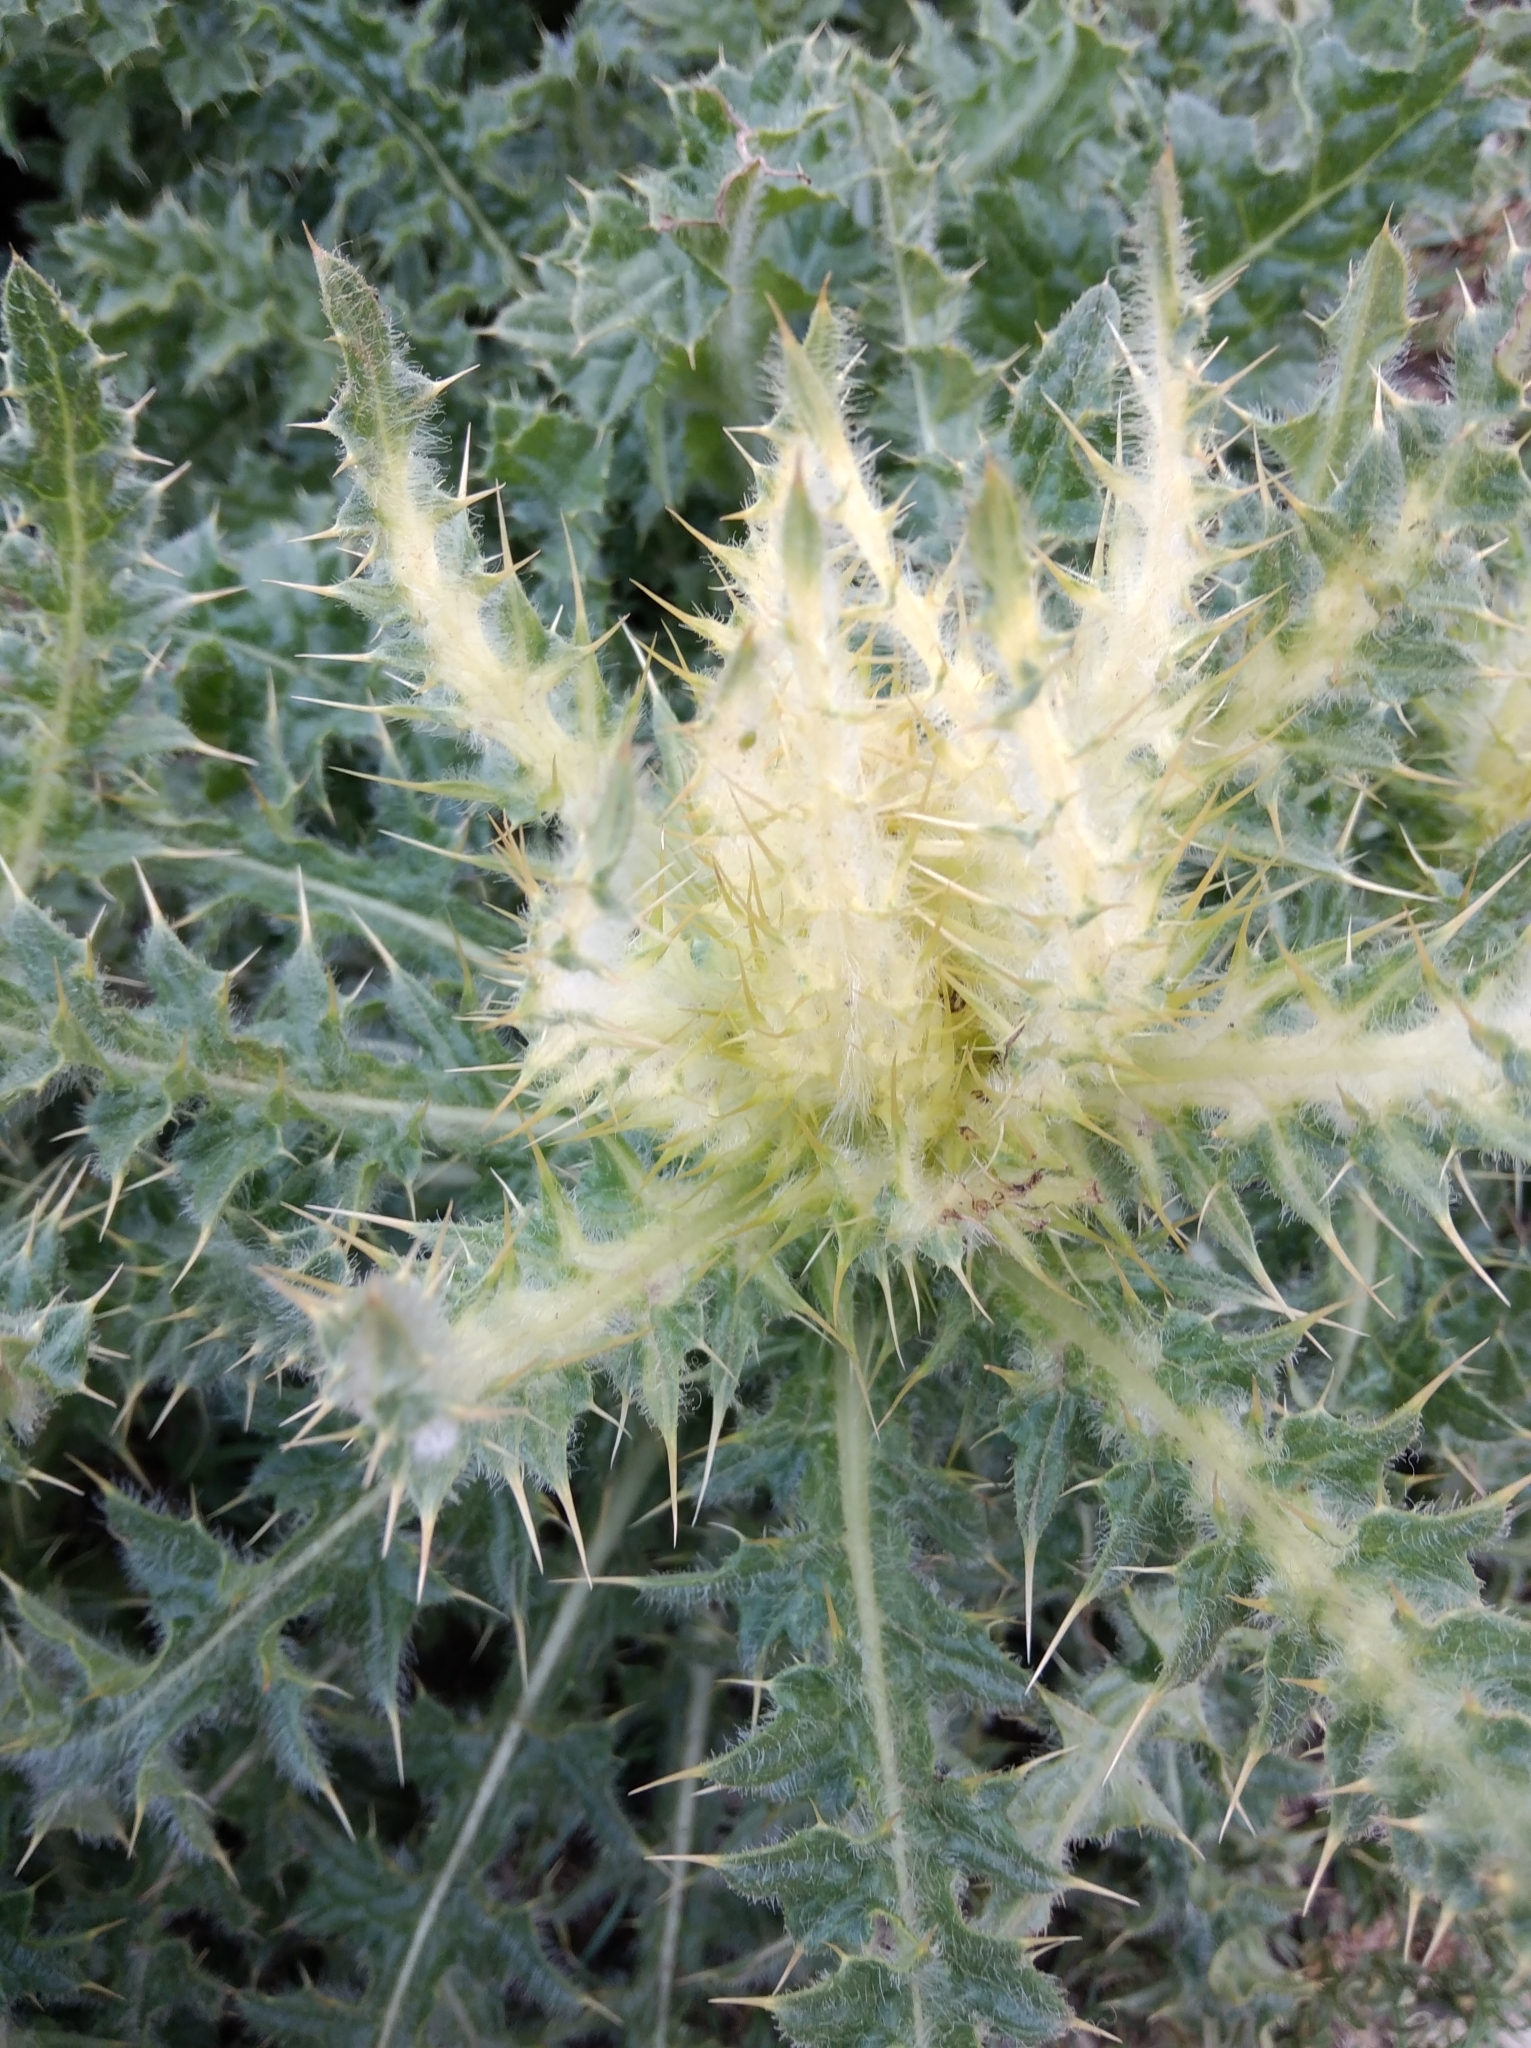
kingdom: Plantae
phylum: Tracheophyta
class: Magnoliopsida
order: Asterales
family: Asteraceae
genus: Cirsium
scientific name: Cirsium spinosissimum
